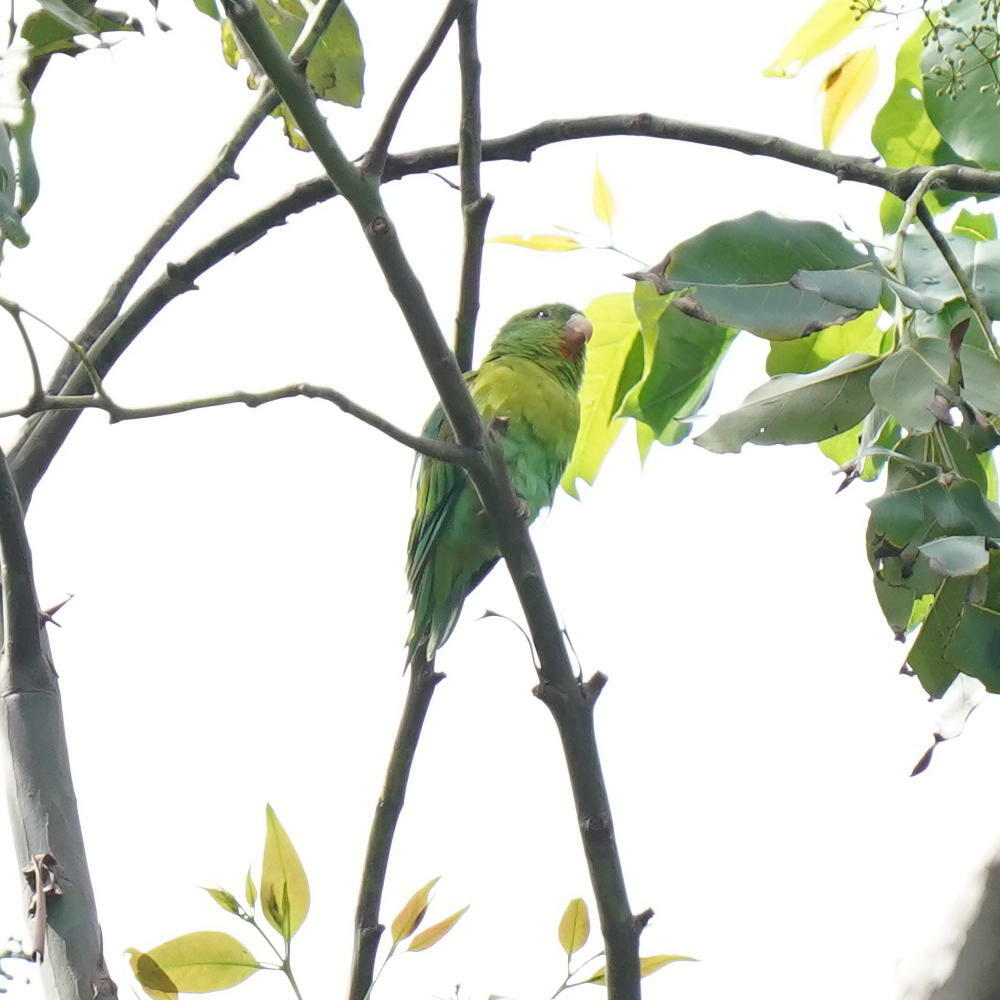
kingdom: Animalia
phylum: Chordata
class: Aves
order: Psittaciformes
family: Psittacidae
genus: Brotogeris
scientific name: Brotogeris jugularis
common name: Orange-chinned parakeet
